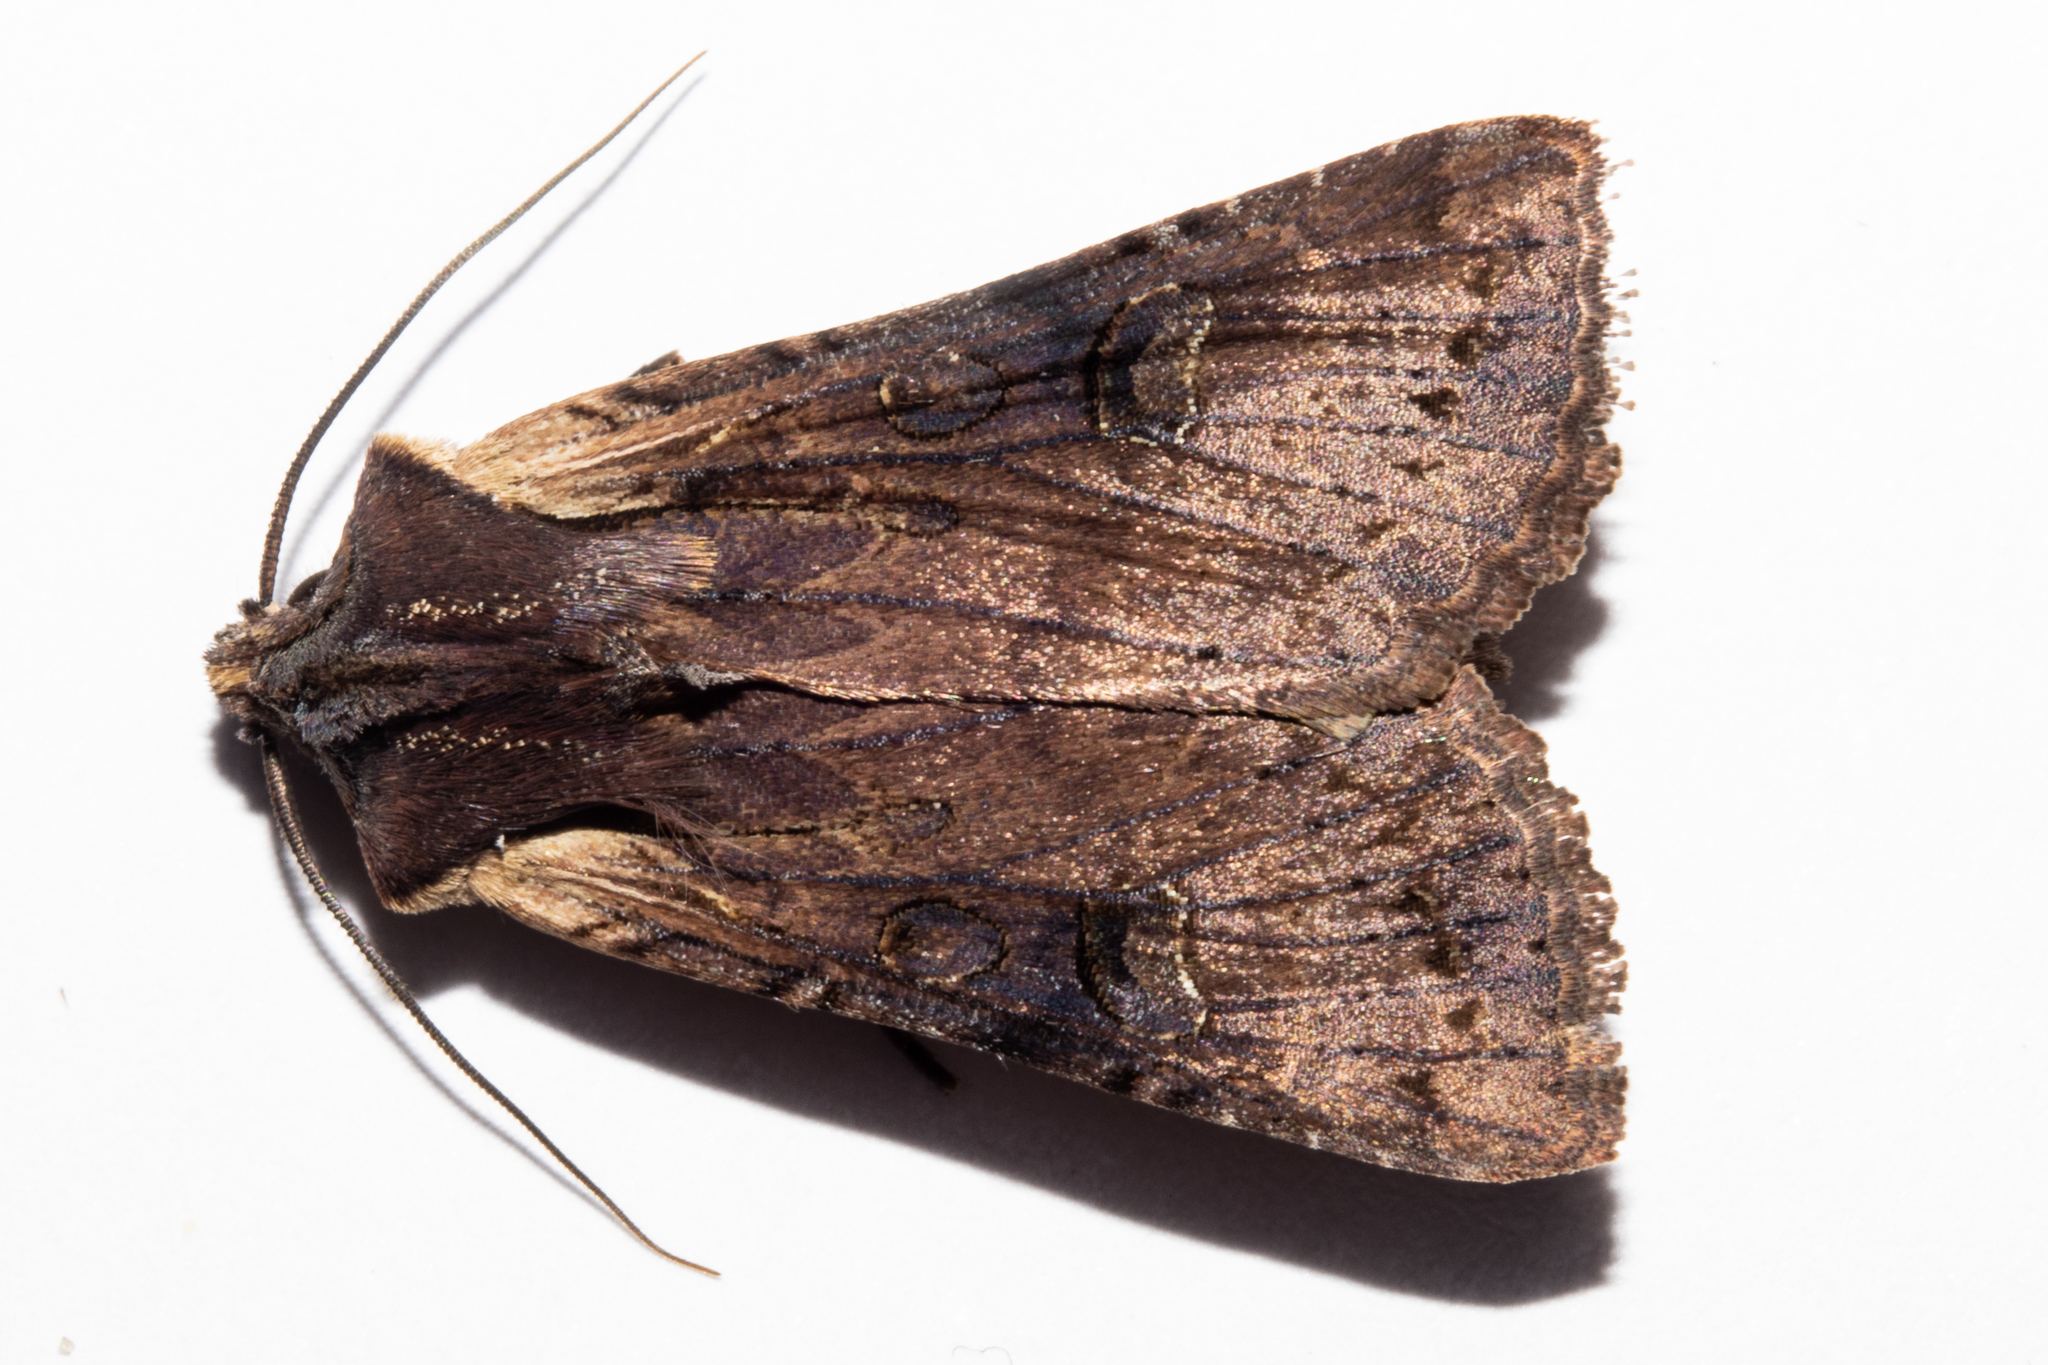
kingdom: Animalia
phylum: Arthropoda
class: Insecta
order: Lepidoptera
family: Noctuidae
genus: Ichneutica
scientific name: Ichneutica omoplaca
